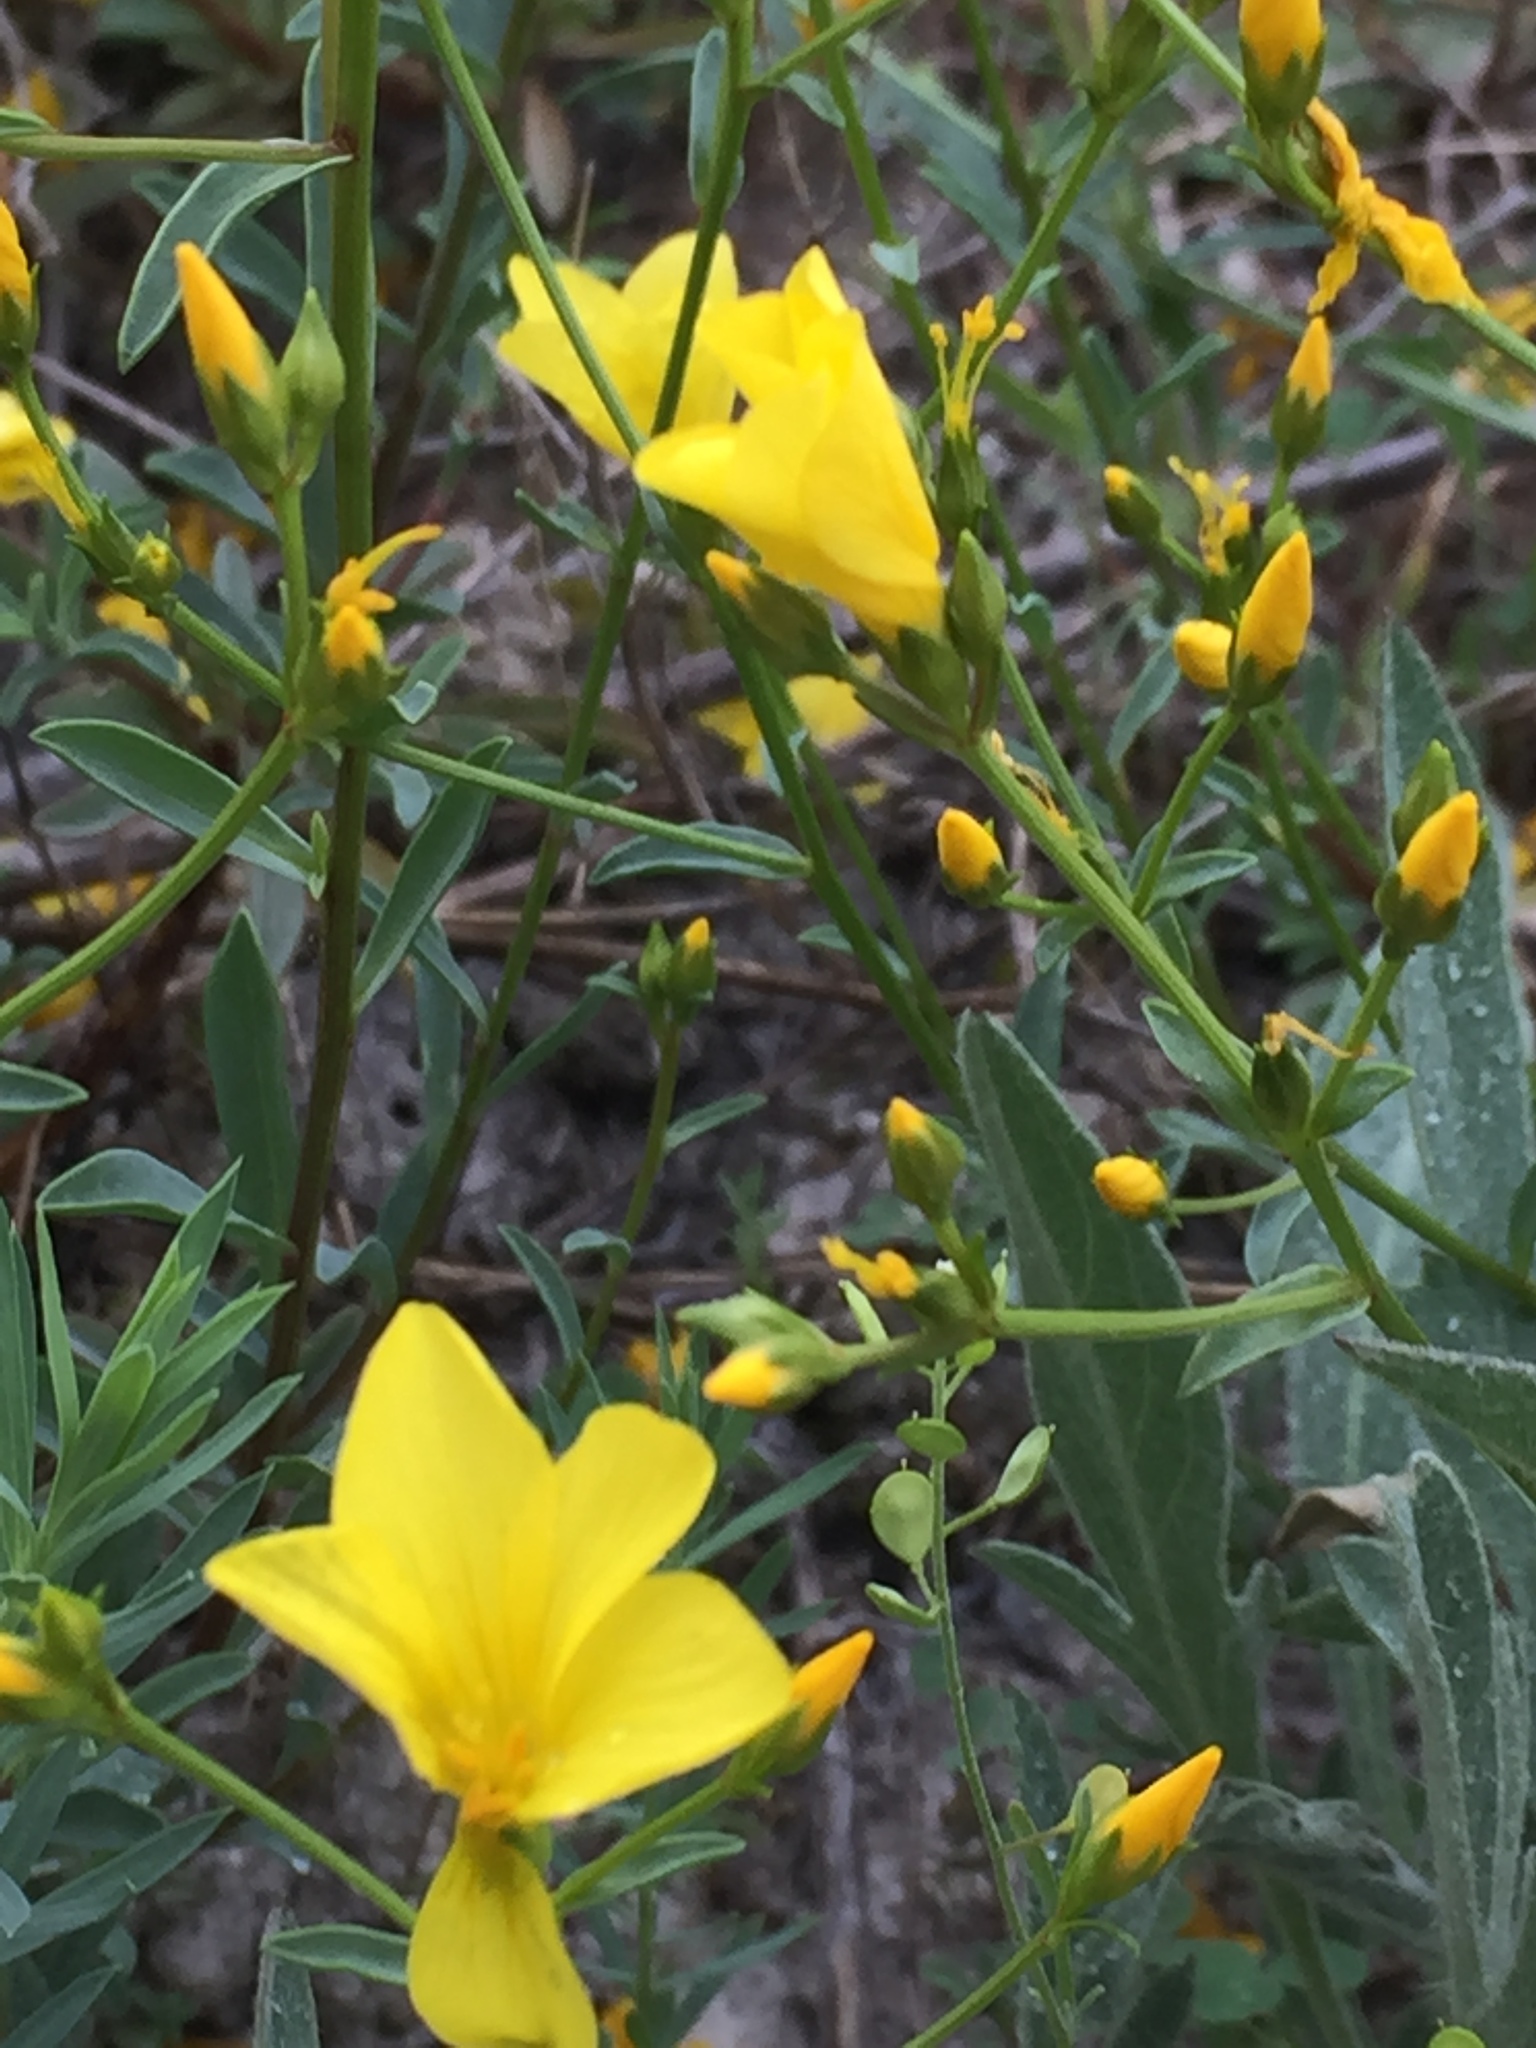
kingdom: Plantae
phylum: Tracheophyta
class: Magnoliopsida
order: Malpighiales
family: Linaceae
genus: Linum
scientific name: Linum ucranicum
